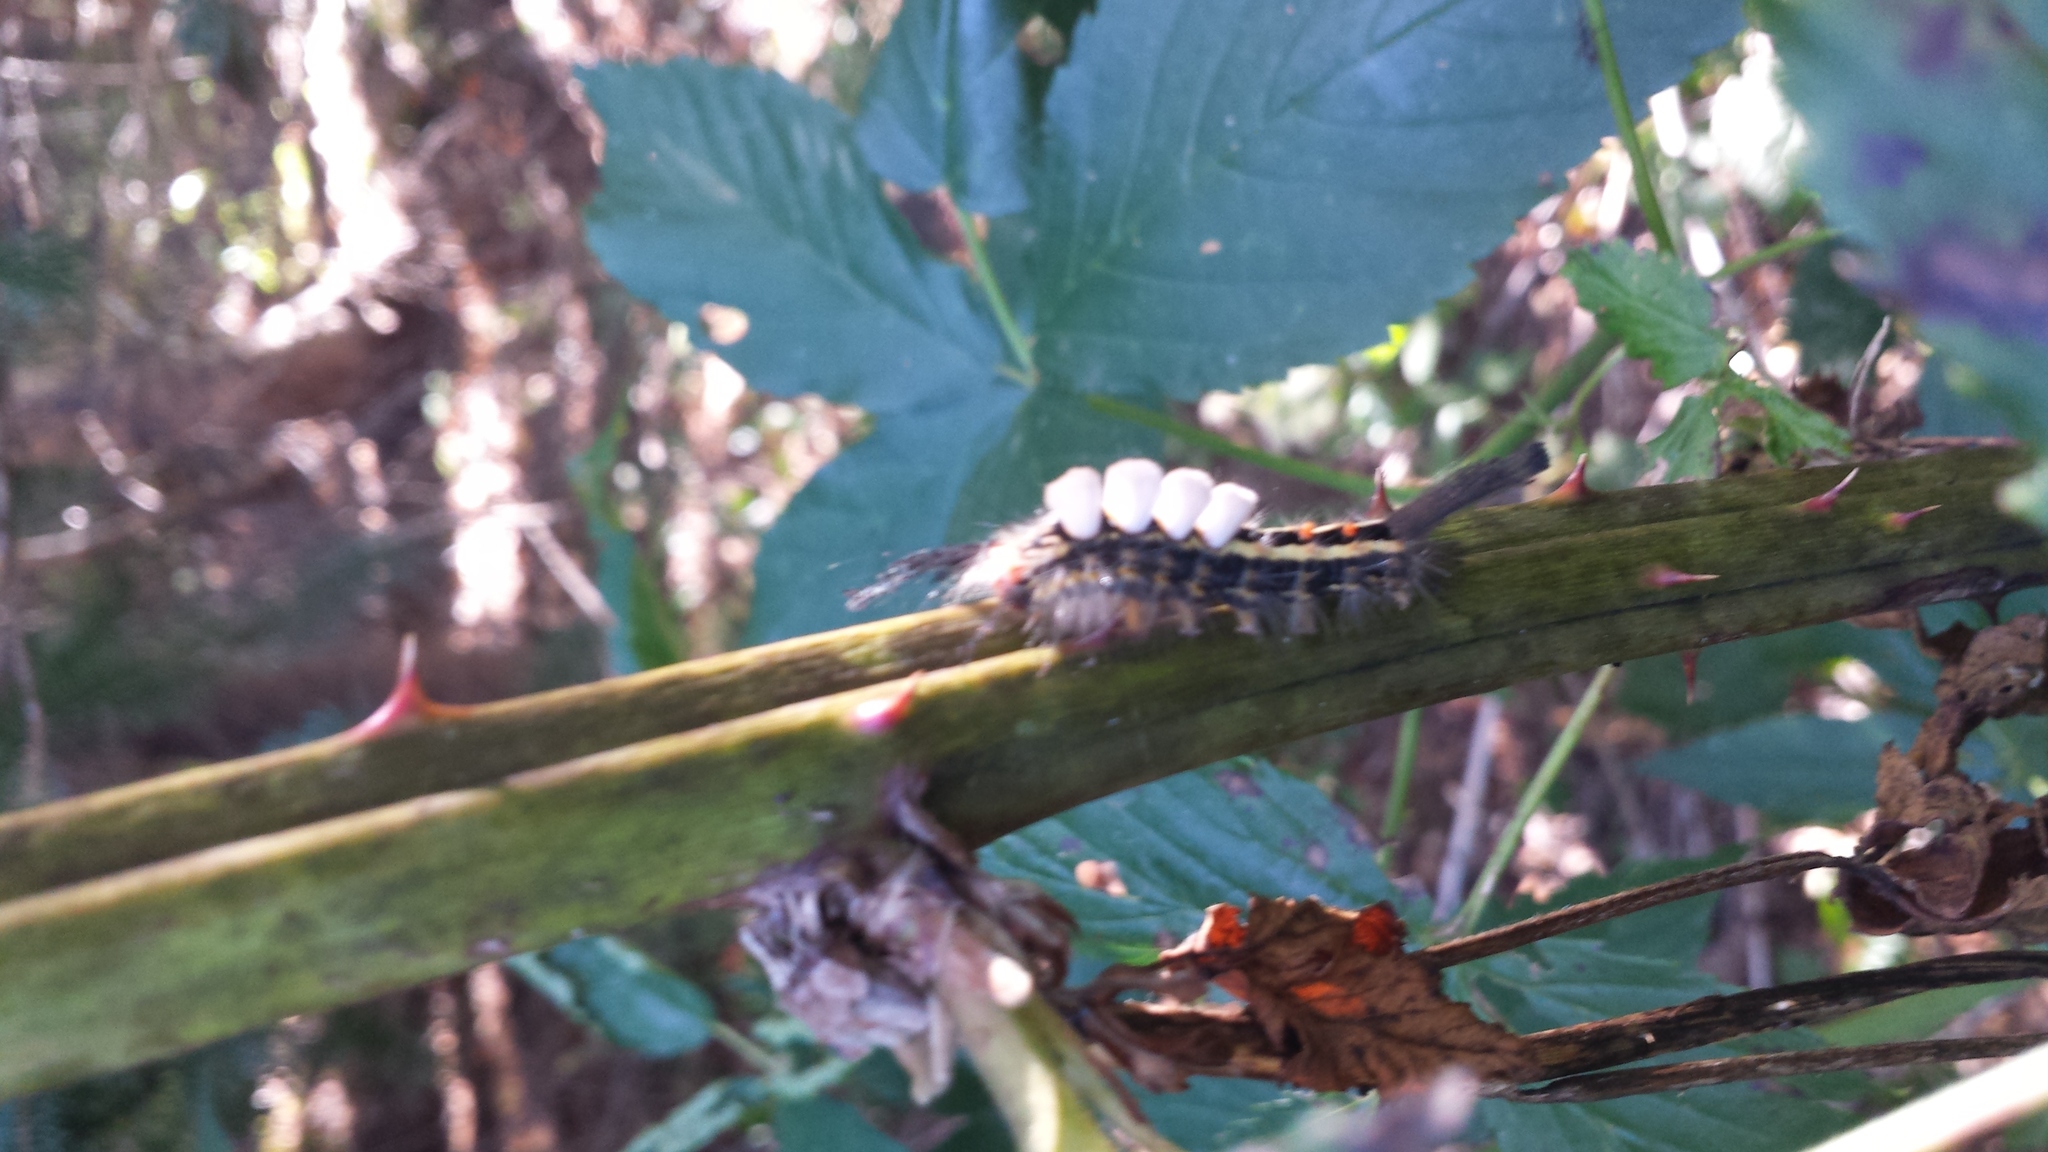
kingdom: Animalia
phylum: Arthropoda
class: Insecta
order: Lepidoptera
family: Erebidae
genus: Orgyia
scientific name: Orgyia leucostigma
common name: White-marked tussock moth
